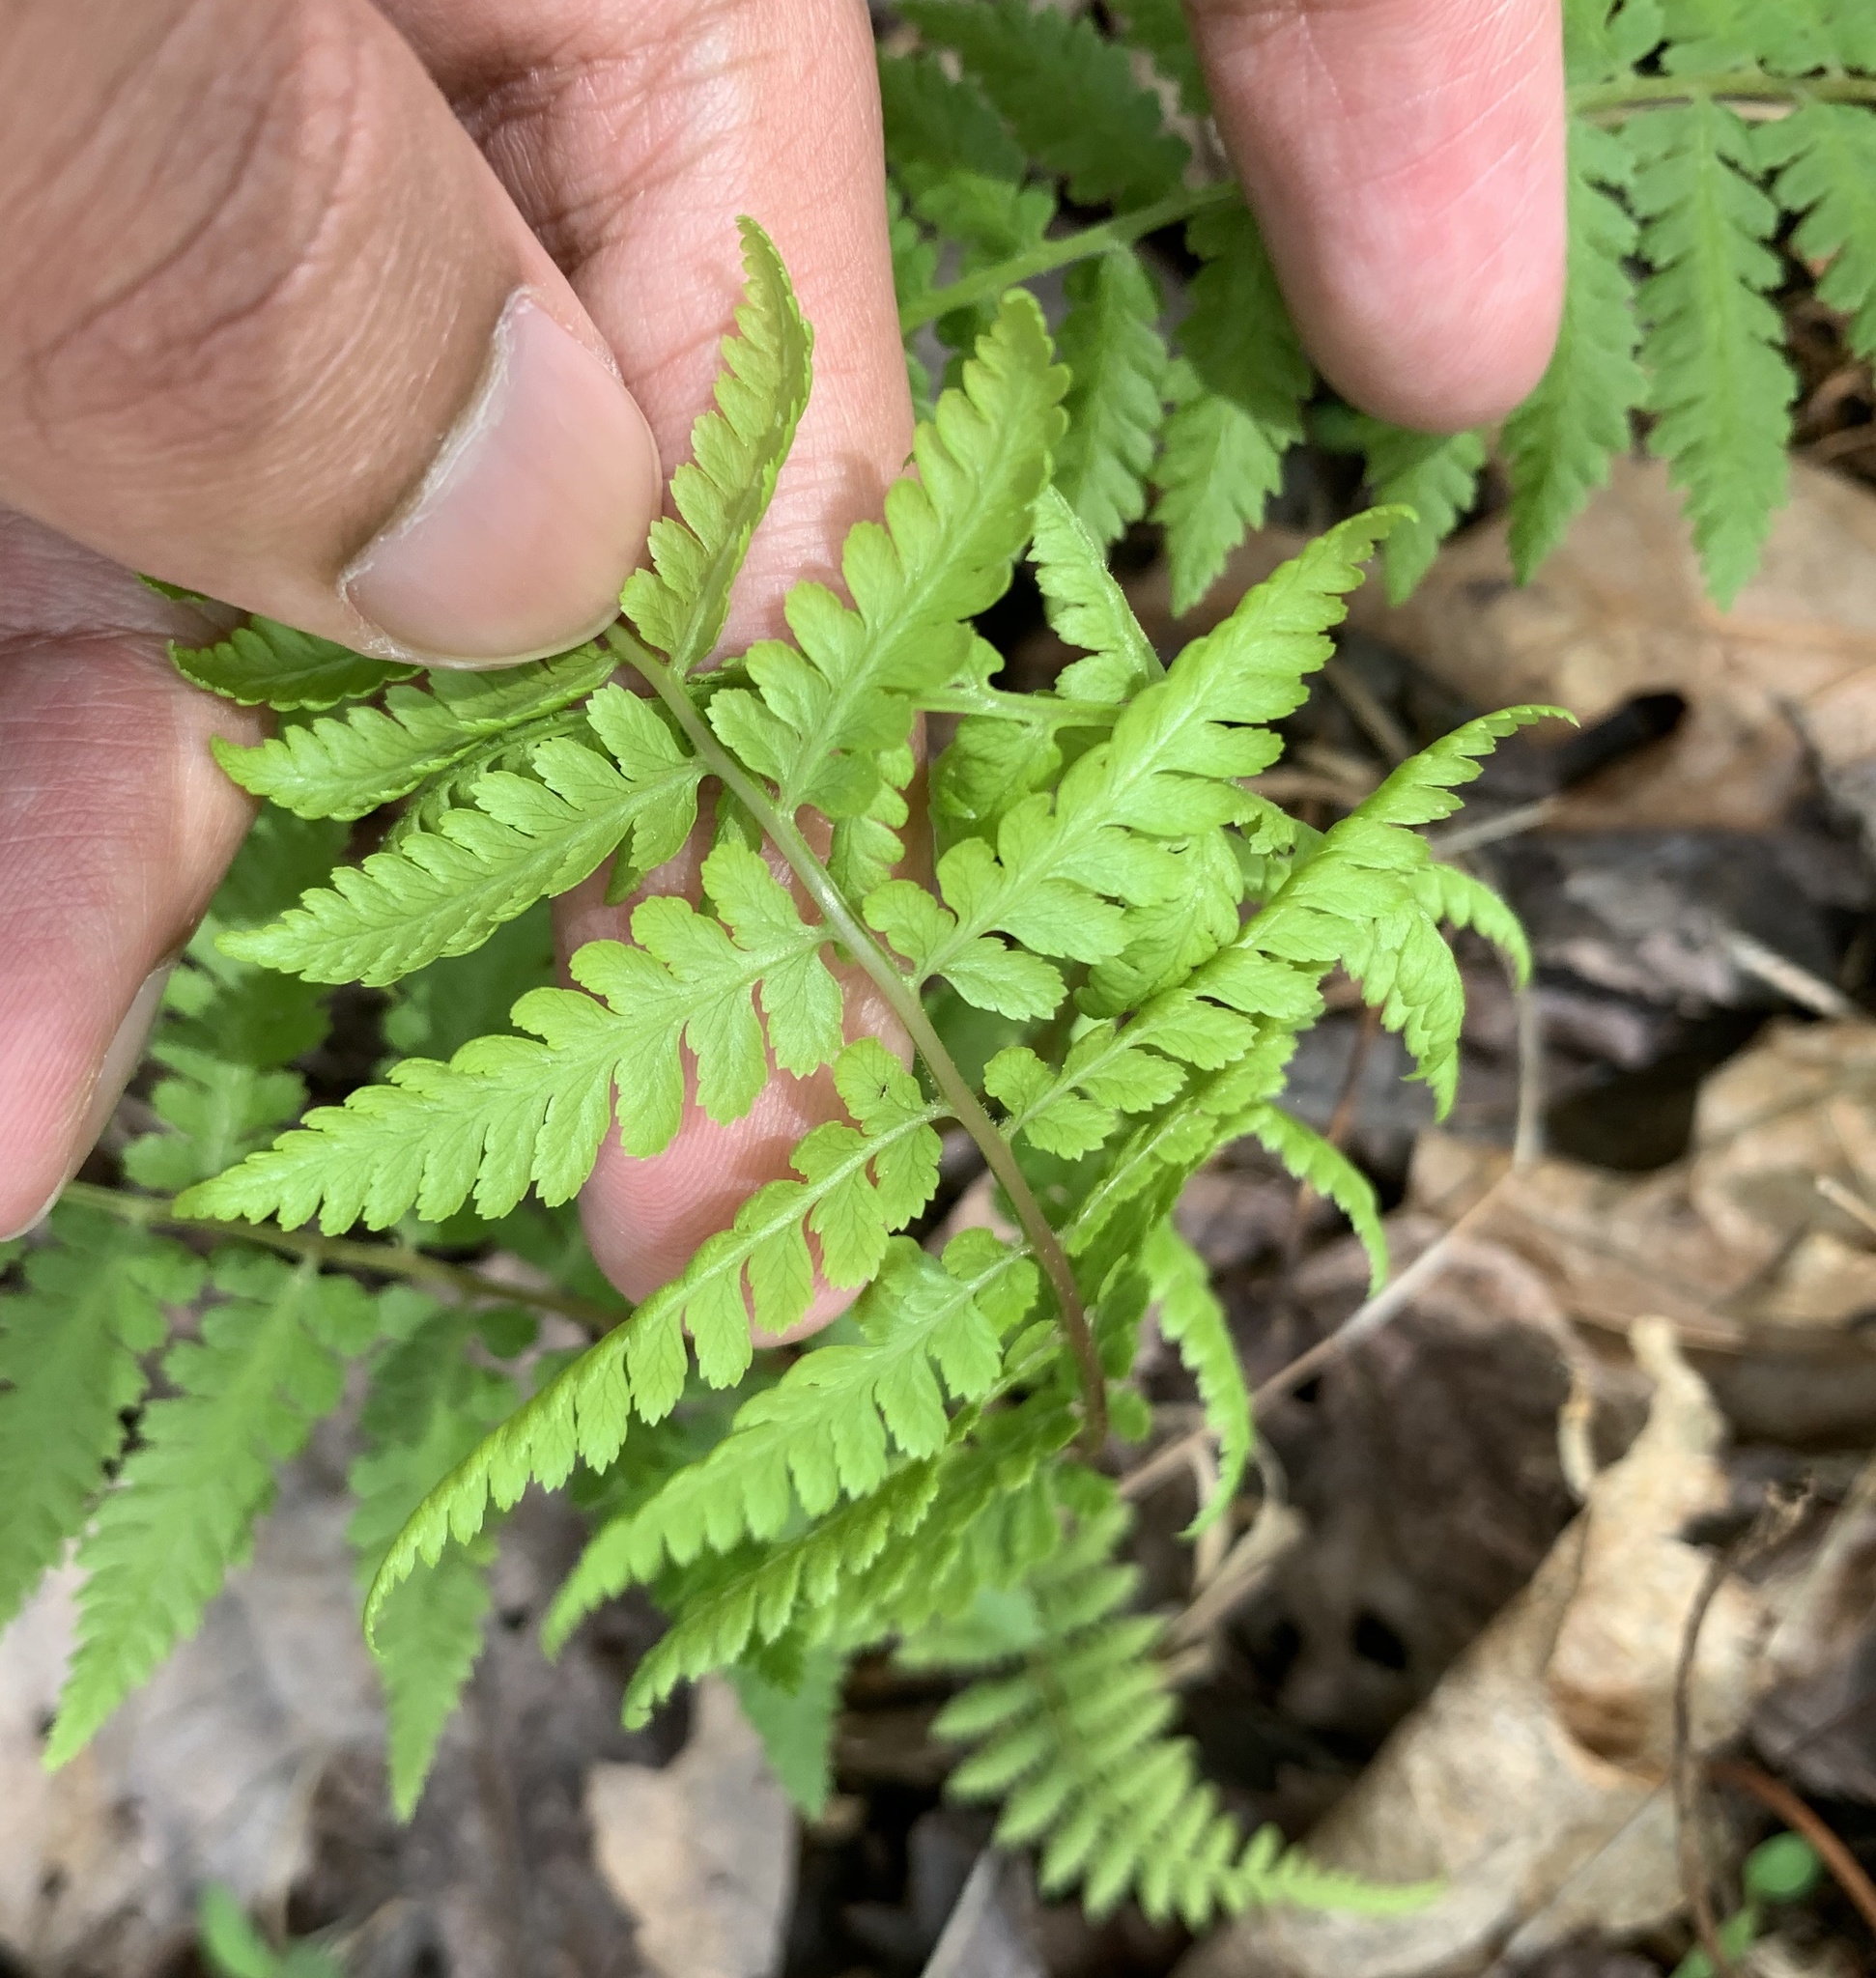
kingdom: Plantae
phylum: Tracheophyta
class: Polypodiopsida
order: Polypodiales
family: Athyriaceae
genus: Athyrium
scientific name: Athyrium asplenioides
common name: Southern lady fern
